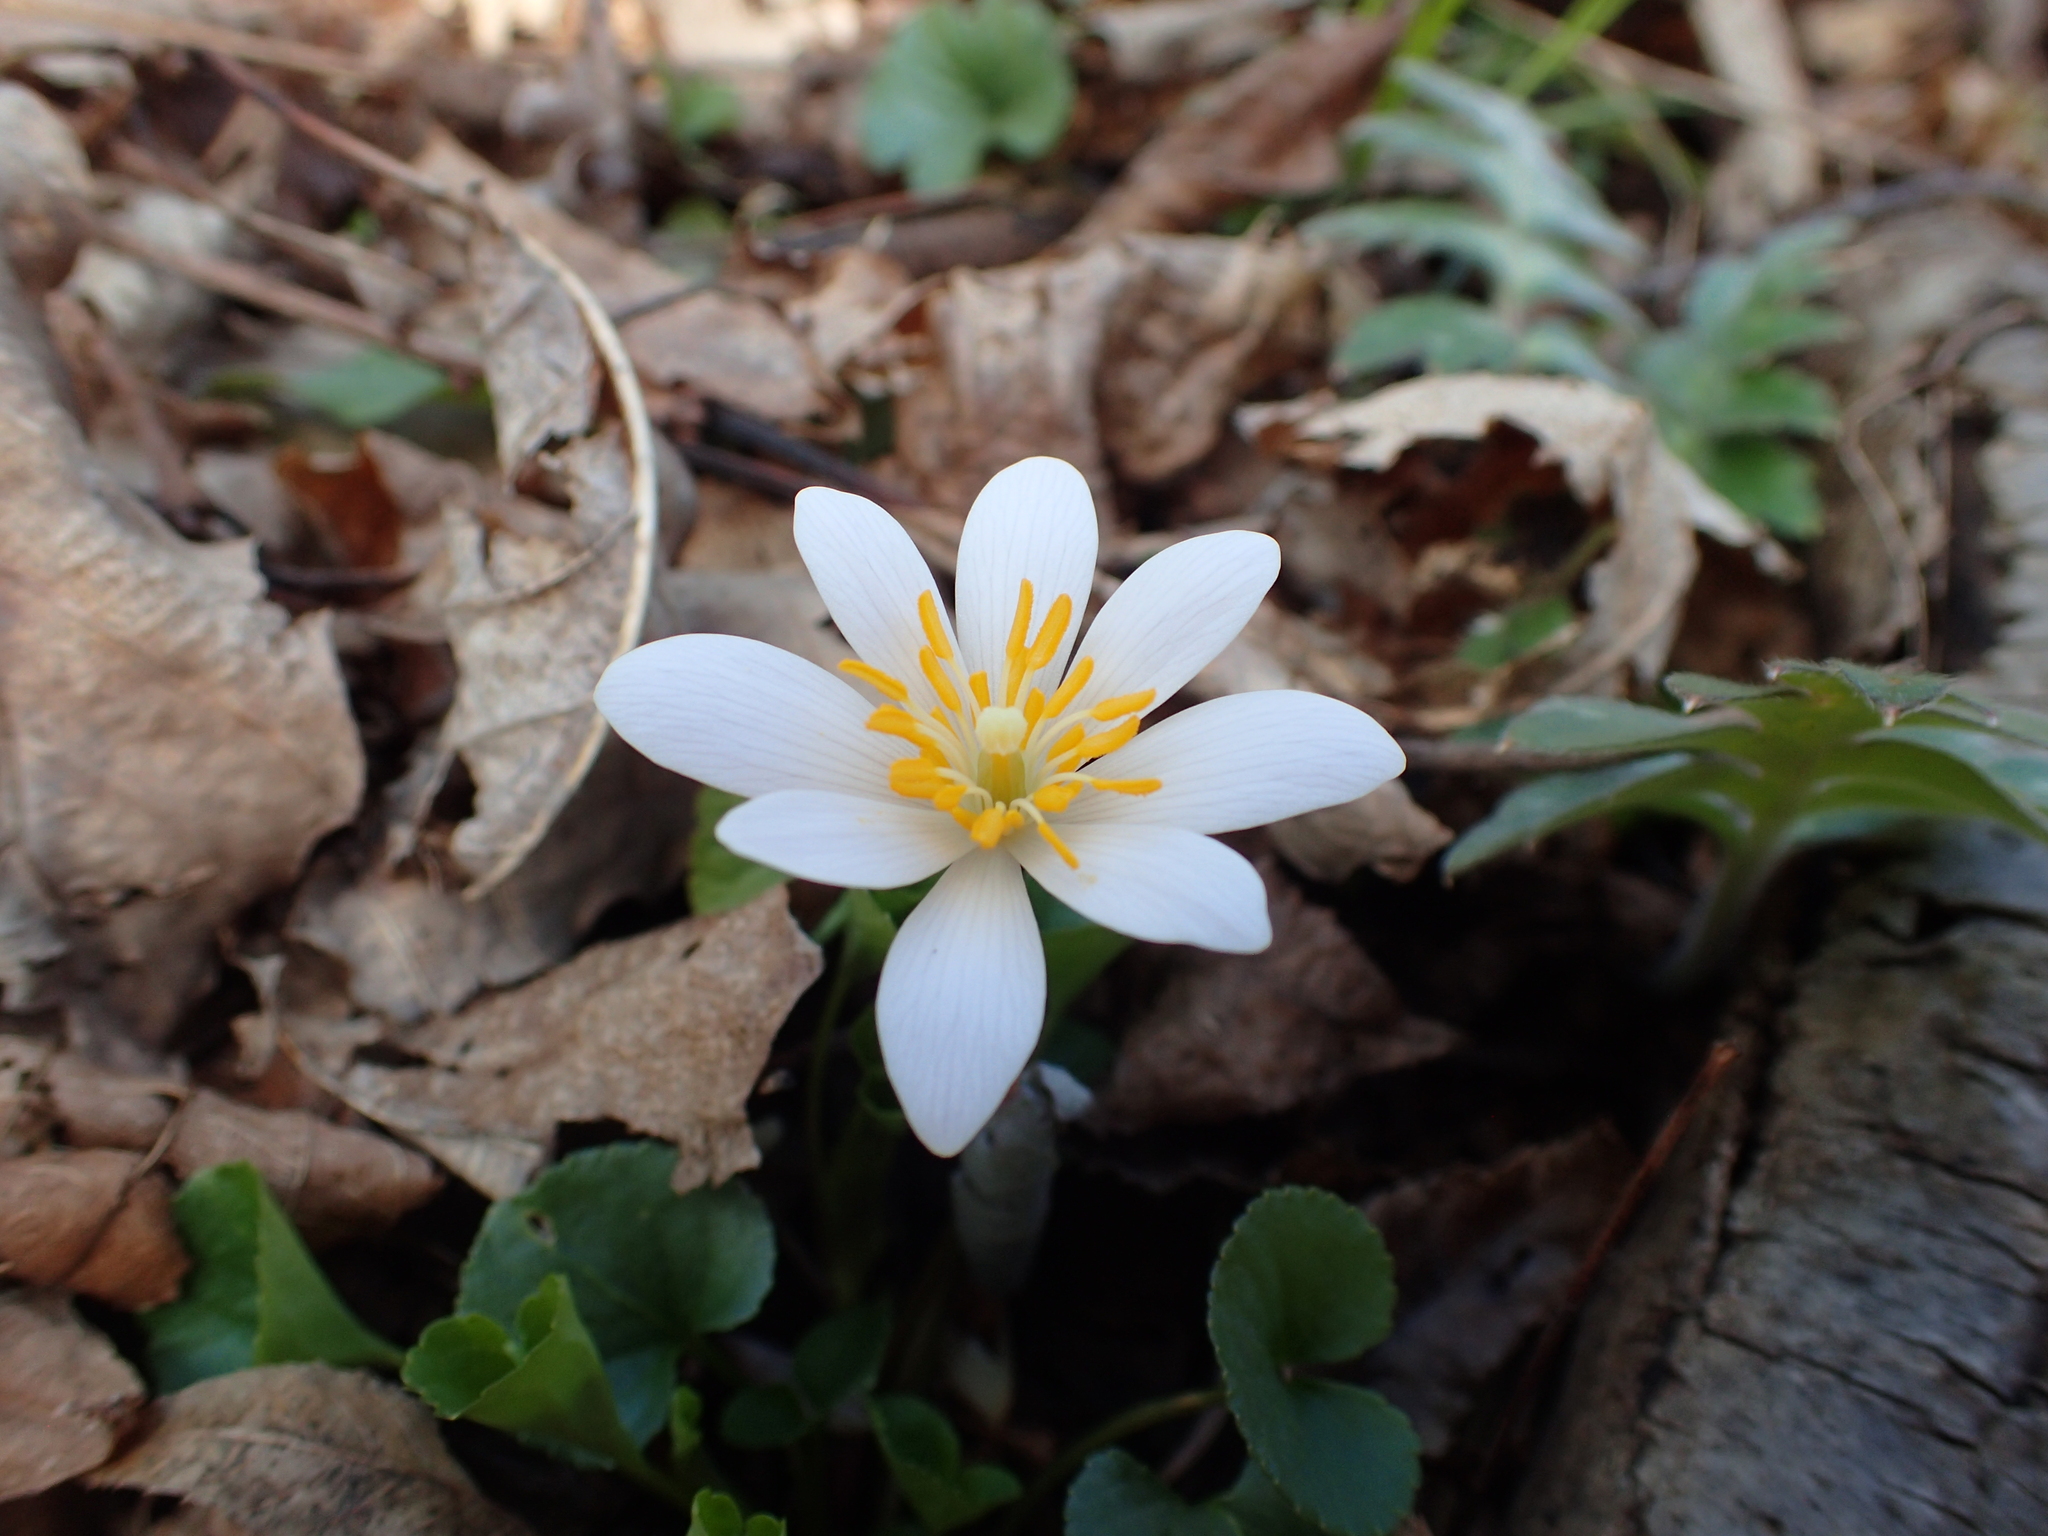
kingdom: Plantae
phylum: Tracheophyta
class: Magnoliopsida
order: Ranunculales
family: Papaveraceae
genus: Sanguinaria
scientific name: Sanguinaria canadensis
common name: Bloodroot
